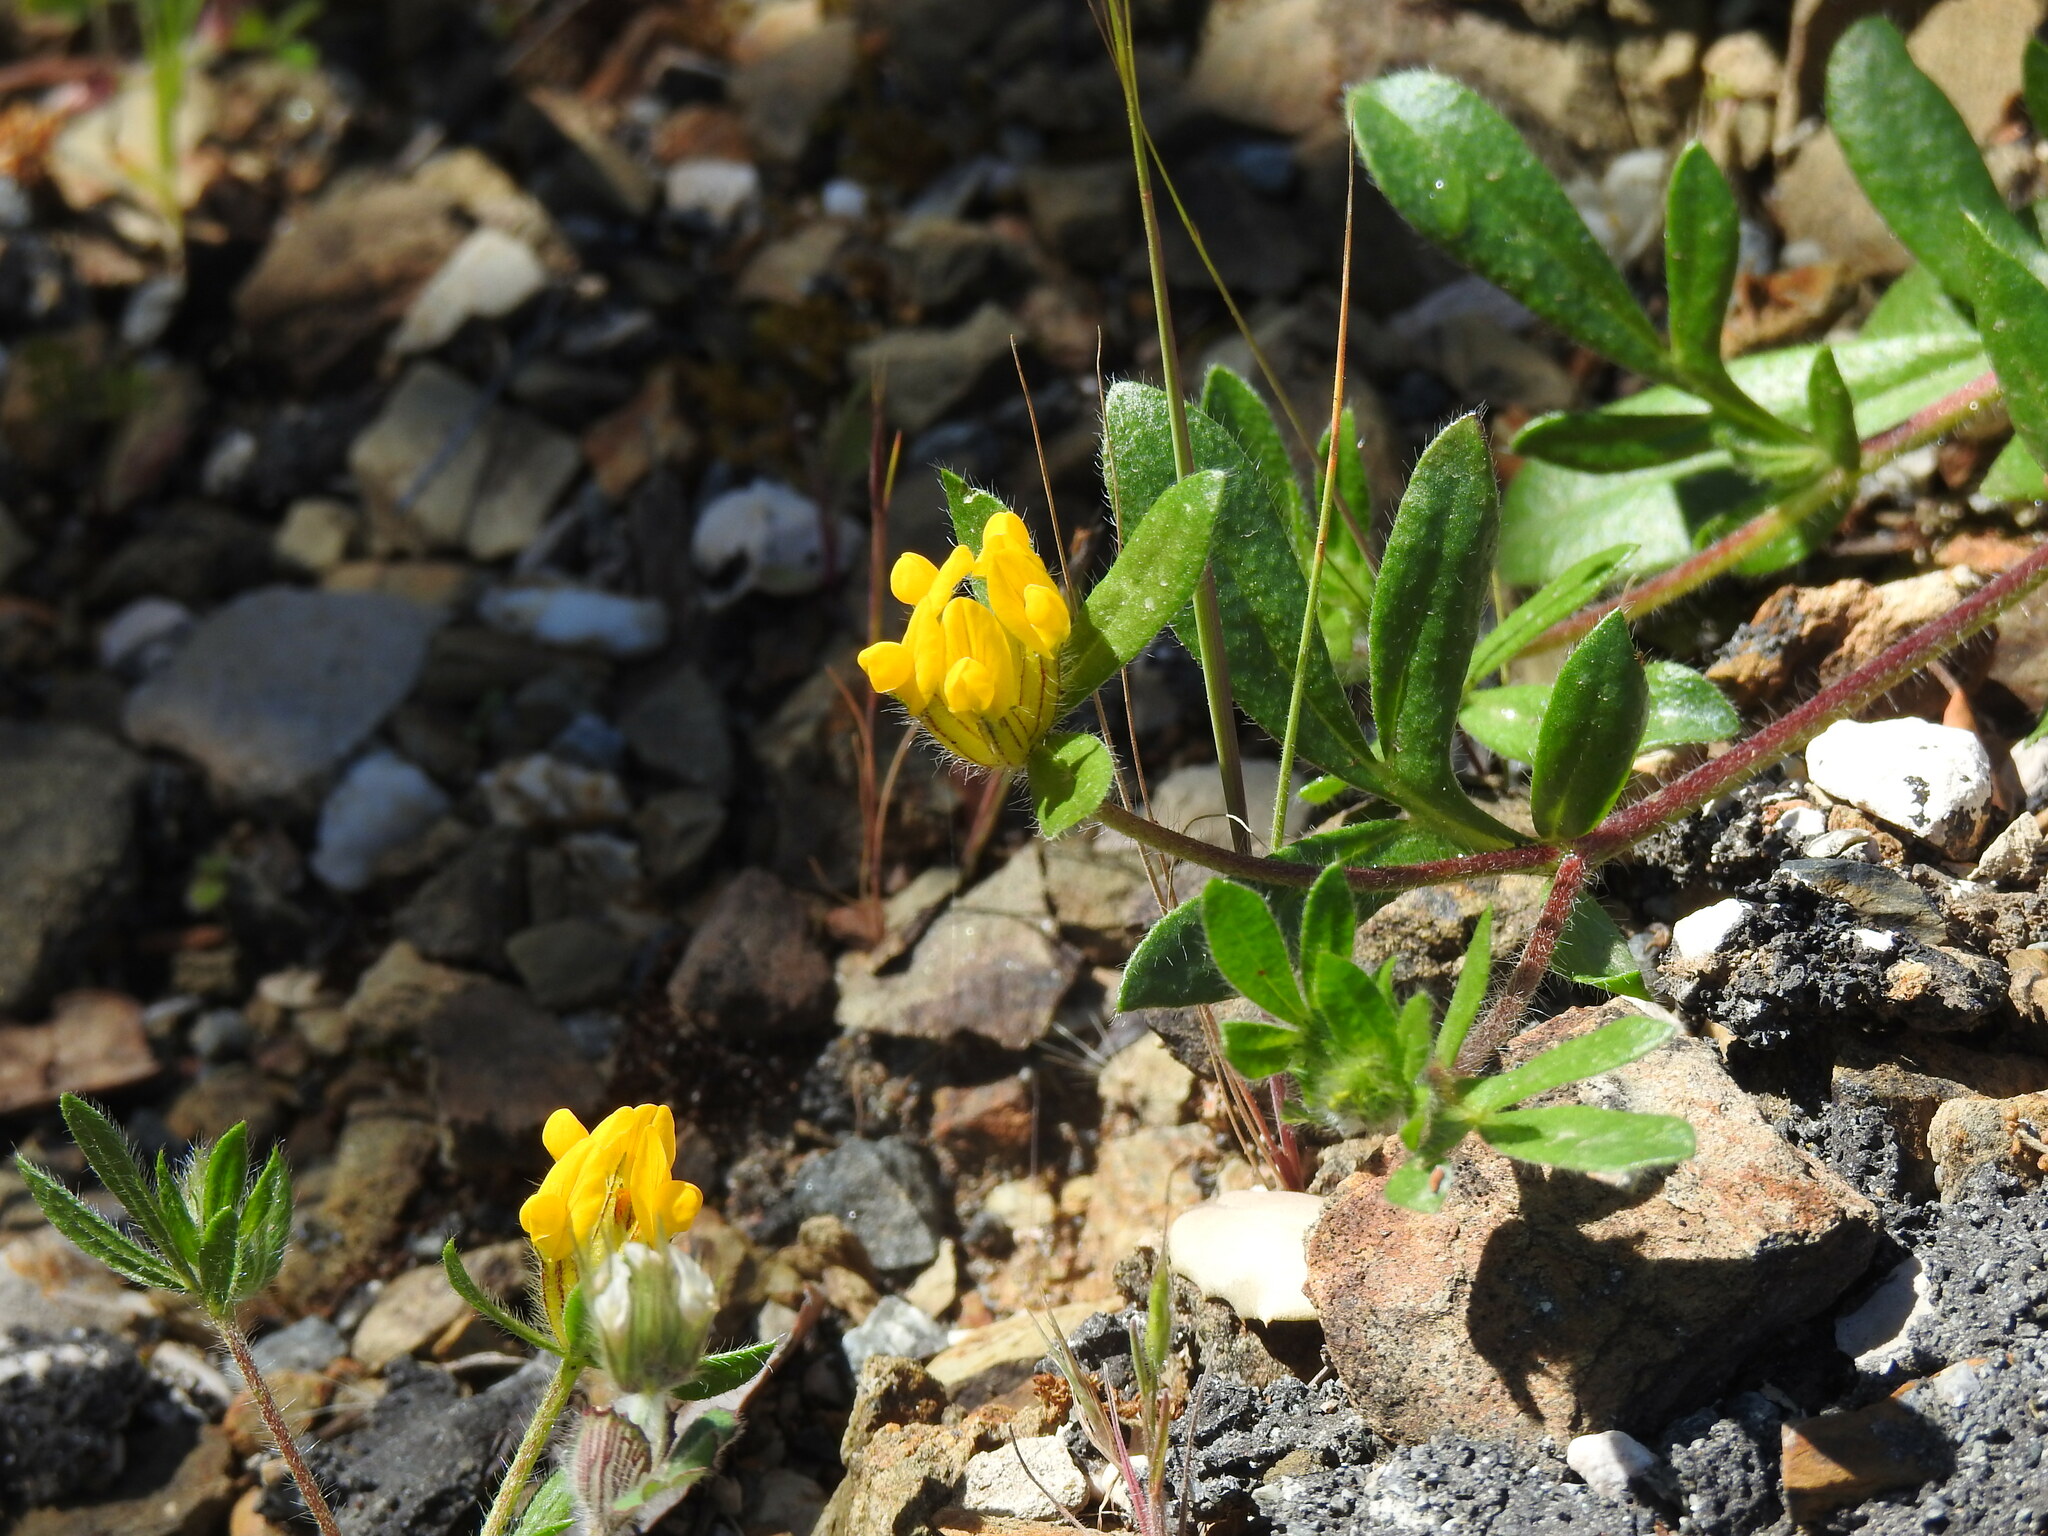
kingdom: Plantae
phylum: Tracheophyta
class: Magnoliopsida
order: Fabales
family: Fabaceae
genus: Anthyllis
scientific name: Anthyllis lotoides
